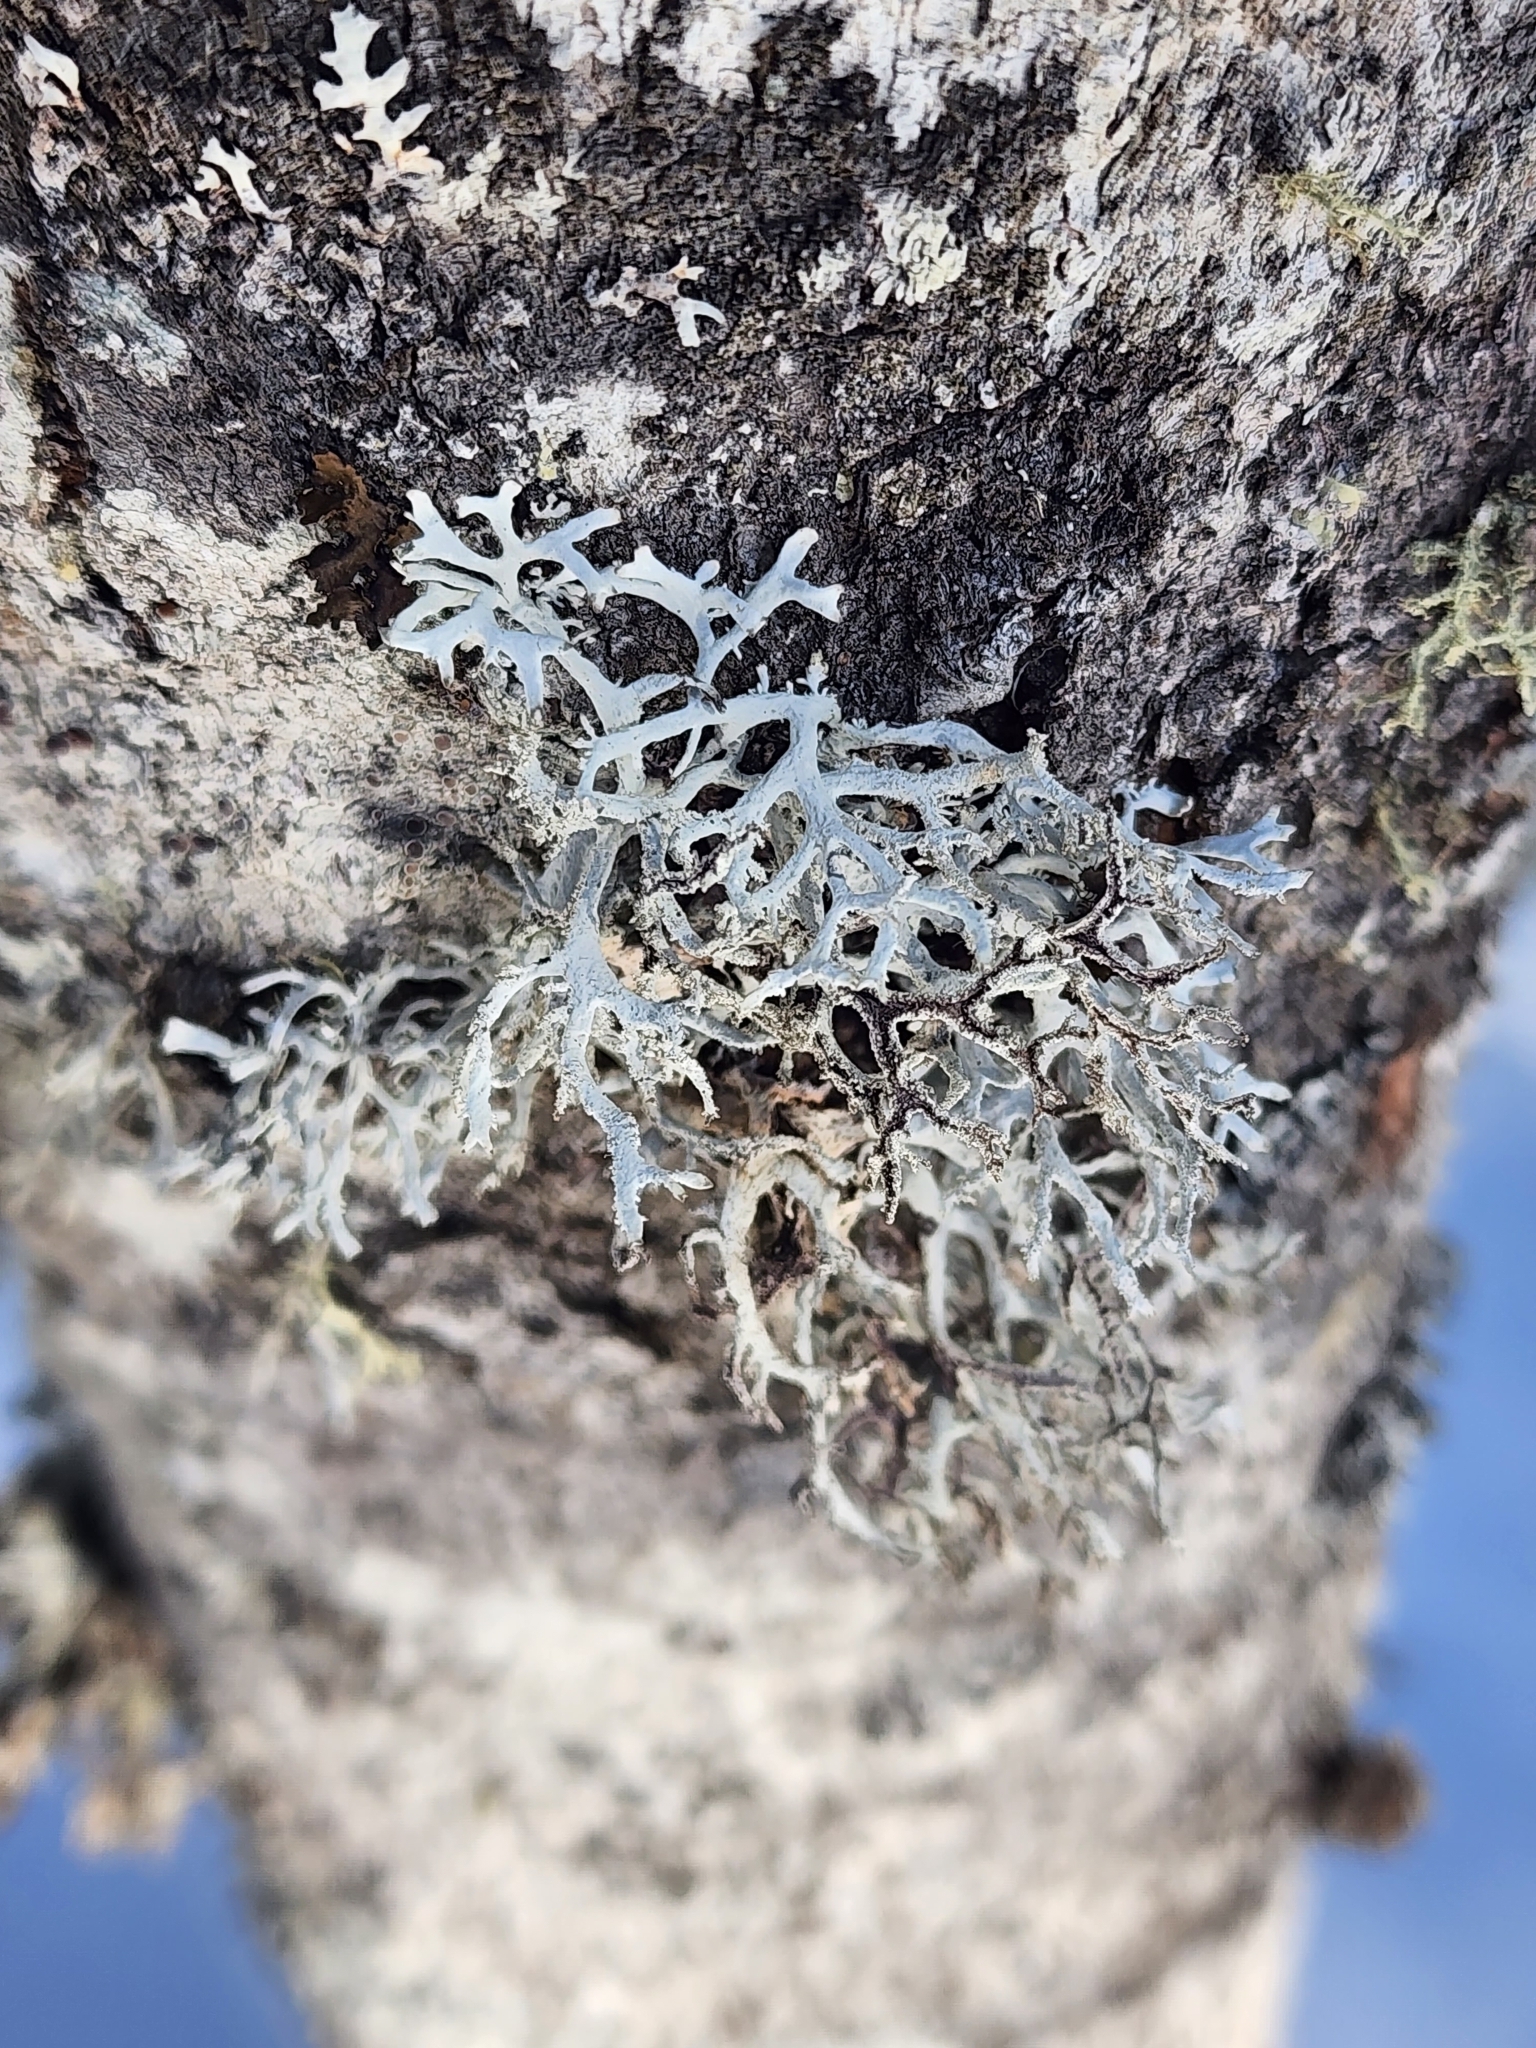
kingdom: Fungi
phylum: Ascomycota
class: Lecanoromycetes
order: Lecanorales
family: Parmeliaceae
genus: Pseudevernia
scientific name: Pseudevernia consocians
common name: Common antler lichen
